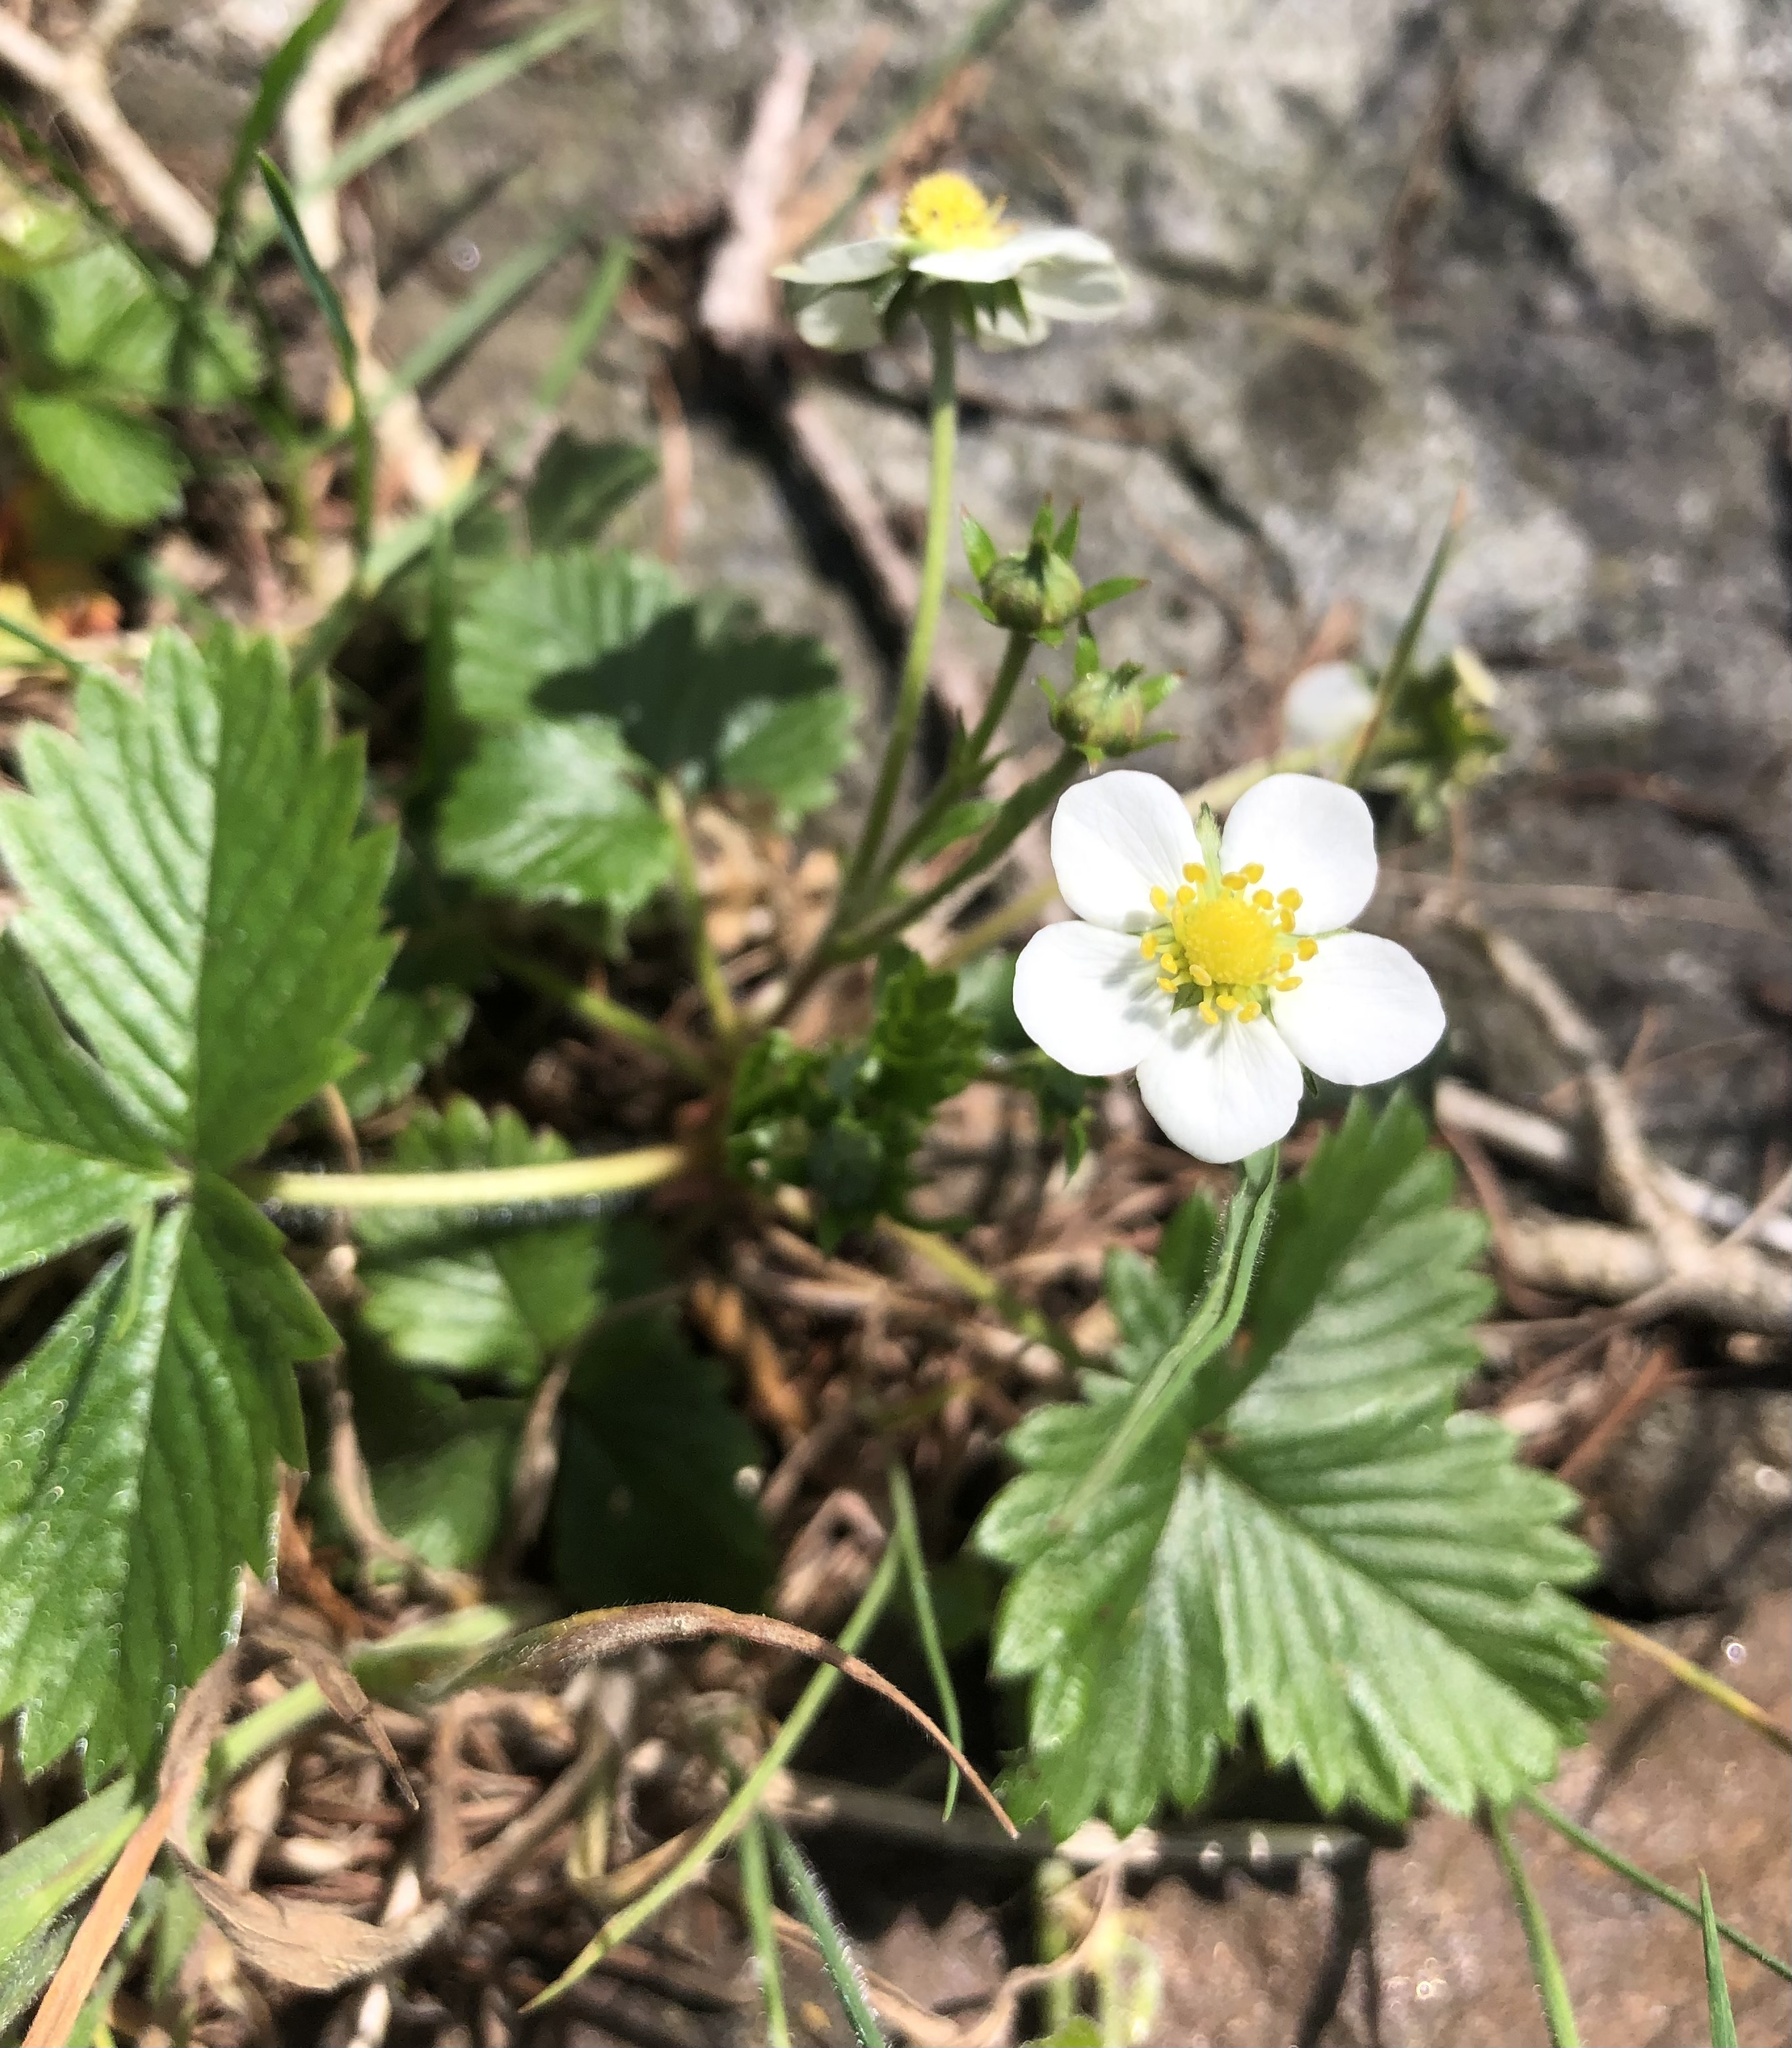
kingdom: Plantae
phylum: Tracheophyta
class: Magnoliopsida
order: Rosales
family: Rosaceae
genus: Fragaria
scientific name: Fragaria vesca
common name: Wild strawberry
